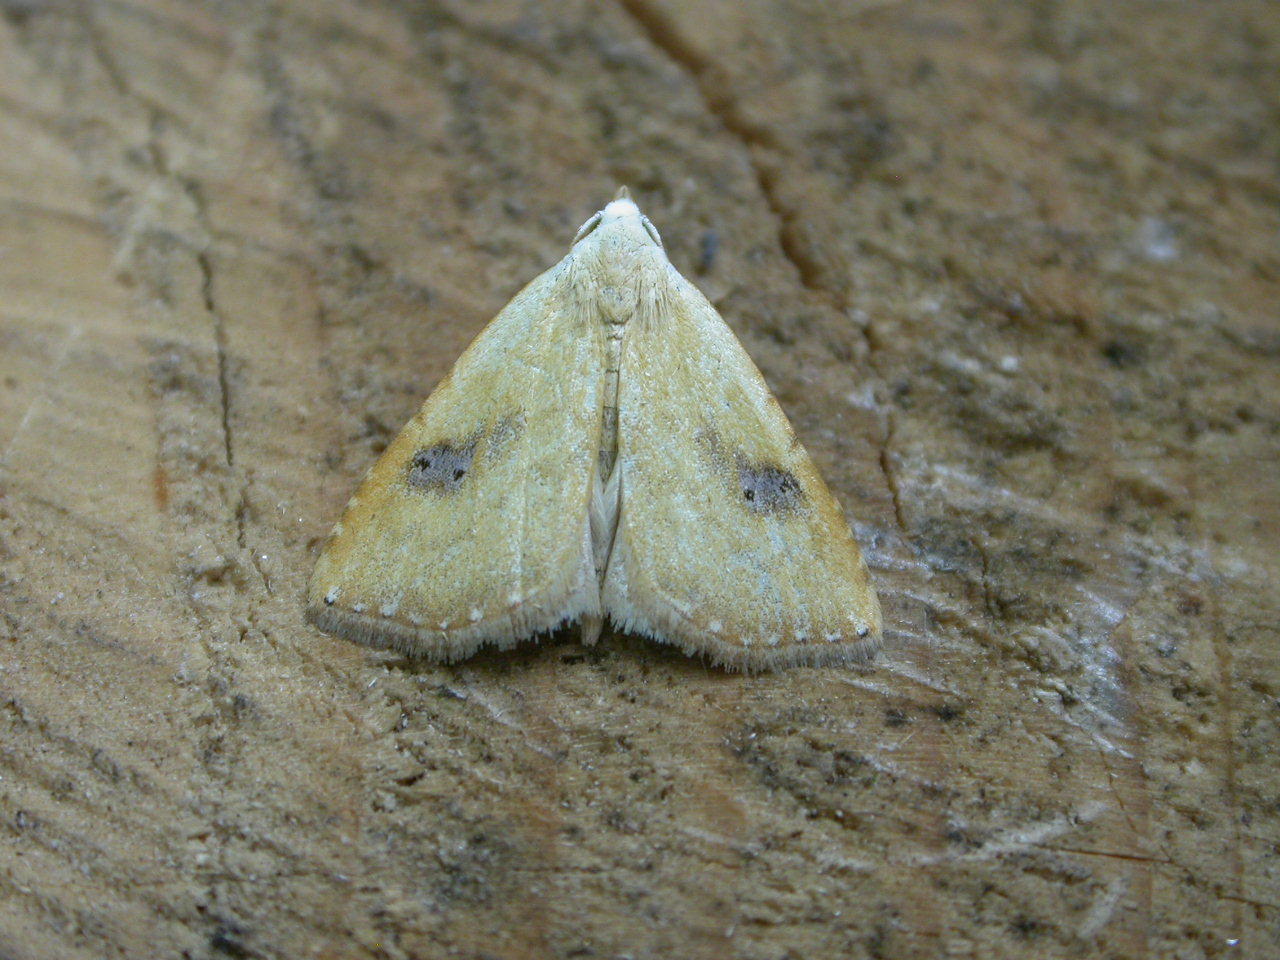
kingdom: Animalia
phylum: Arthropoda
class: Insecta
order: Lepidoptera
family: Erebidae
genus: Rivula
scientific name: Rivula sericealis
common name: Straw dot
